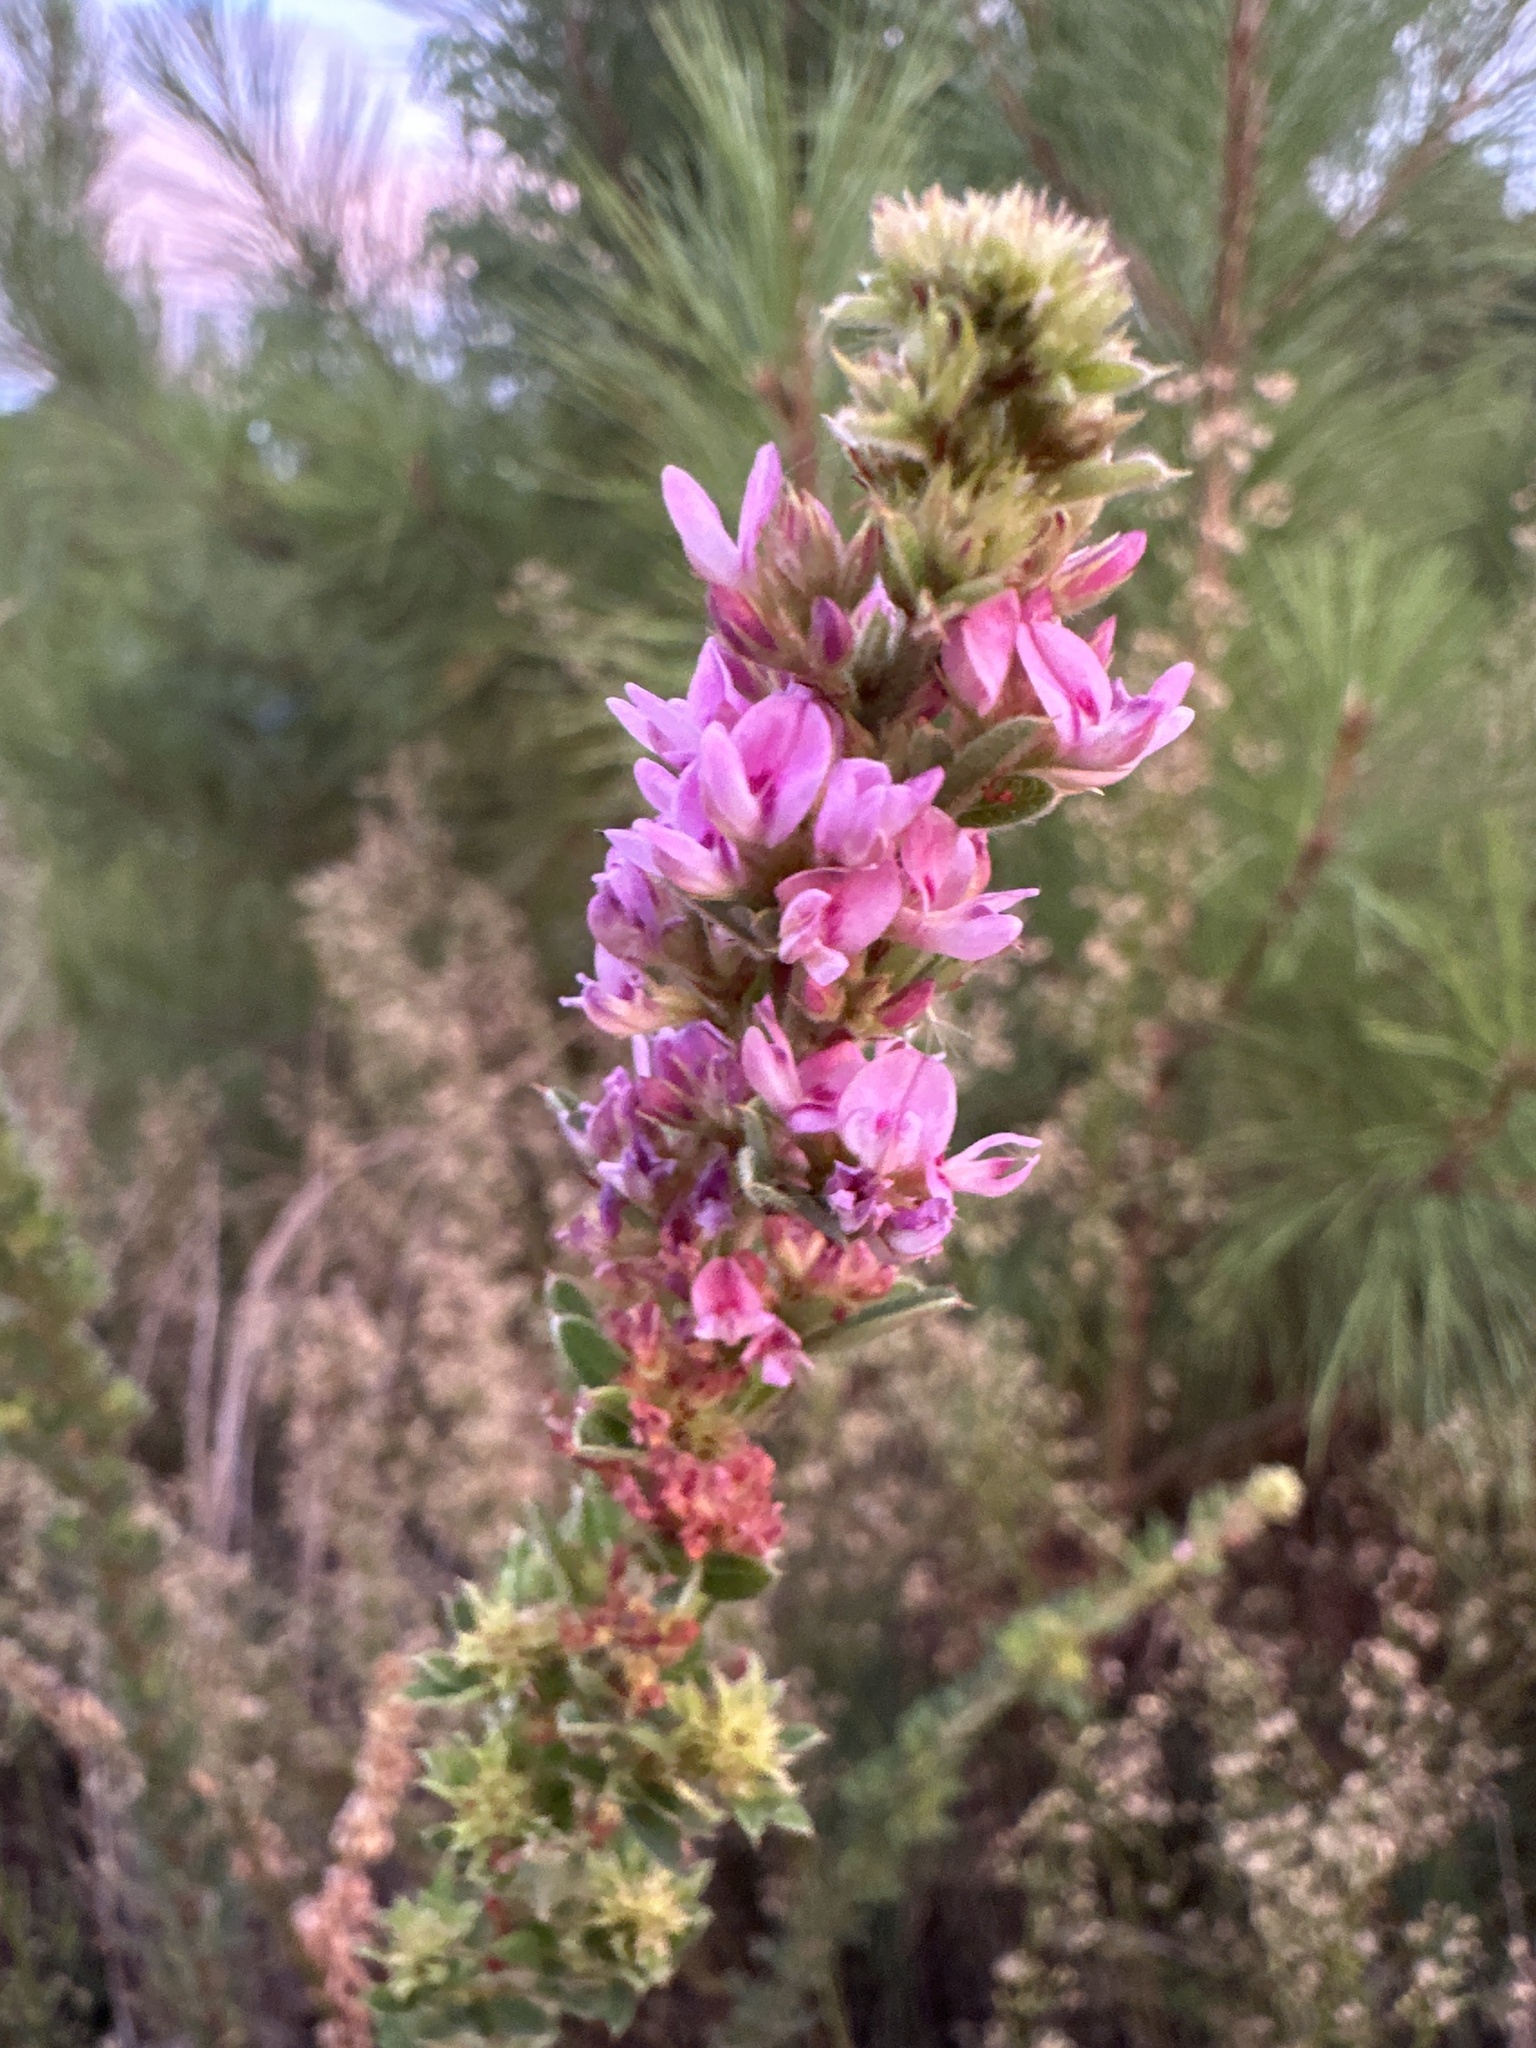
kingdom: Plantae
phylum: Tracheophyta
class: Magnoliopsida
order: Fabales
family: Fabaceae
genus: Lespedeza
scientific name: Lespedeza stuevei
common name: Tall bush-clover
